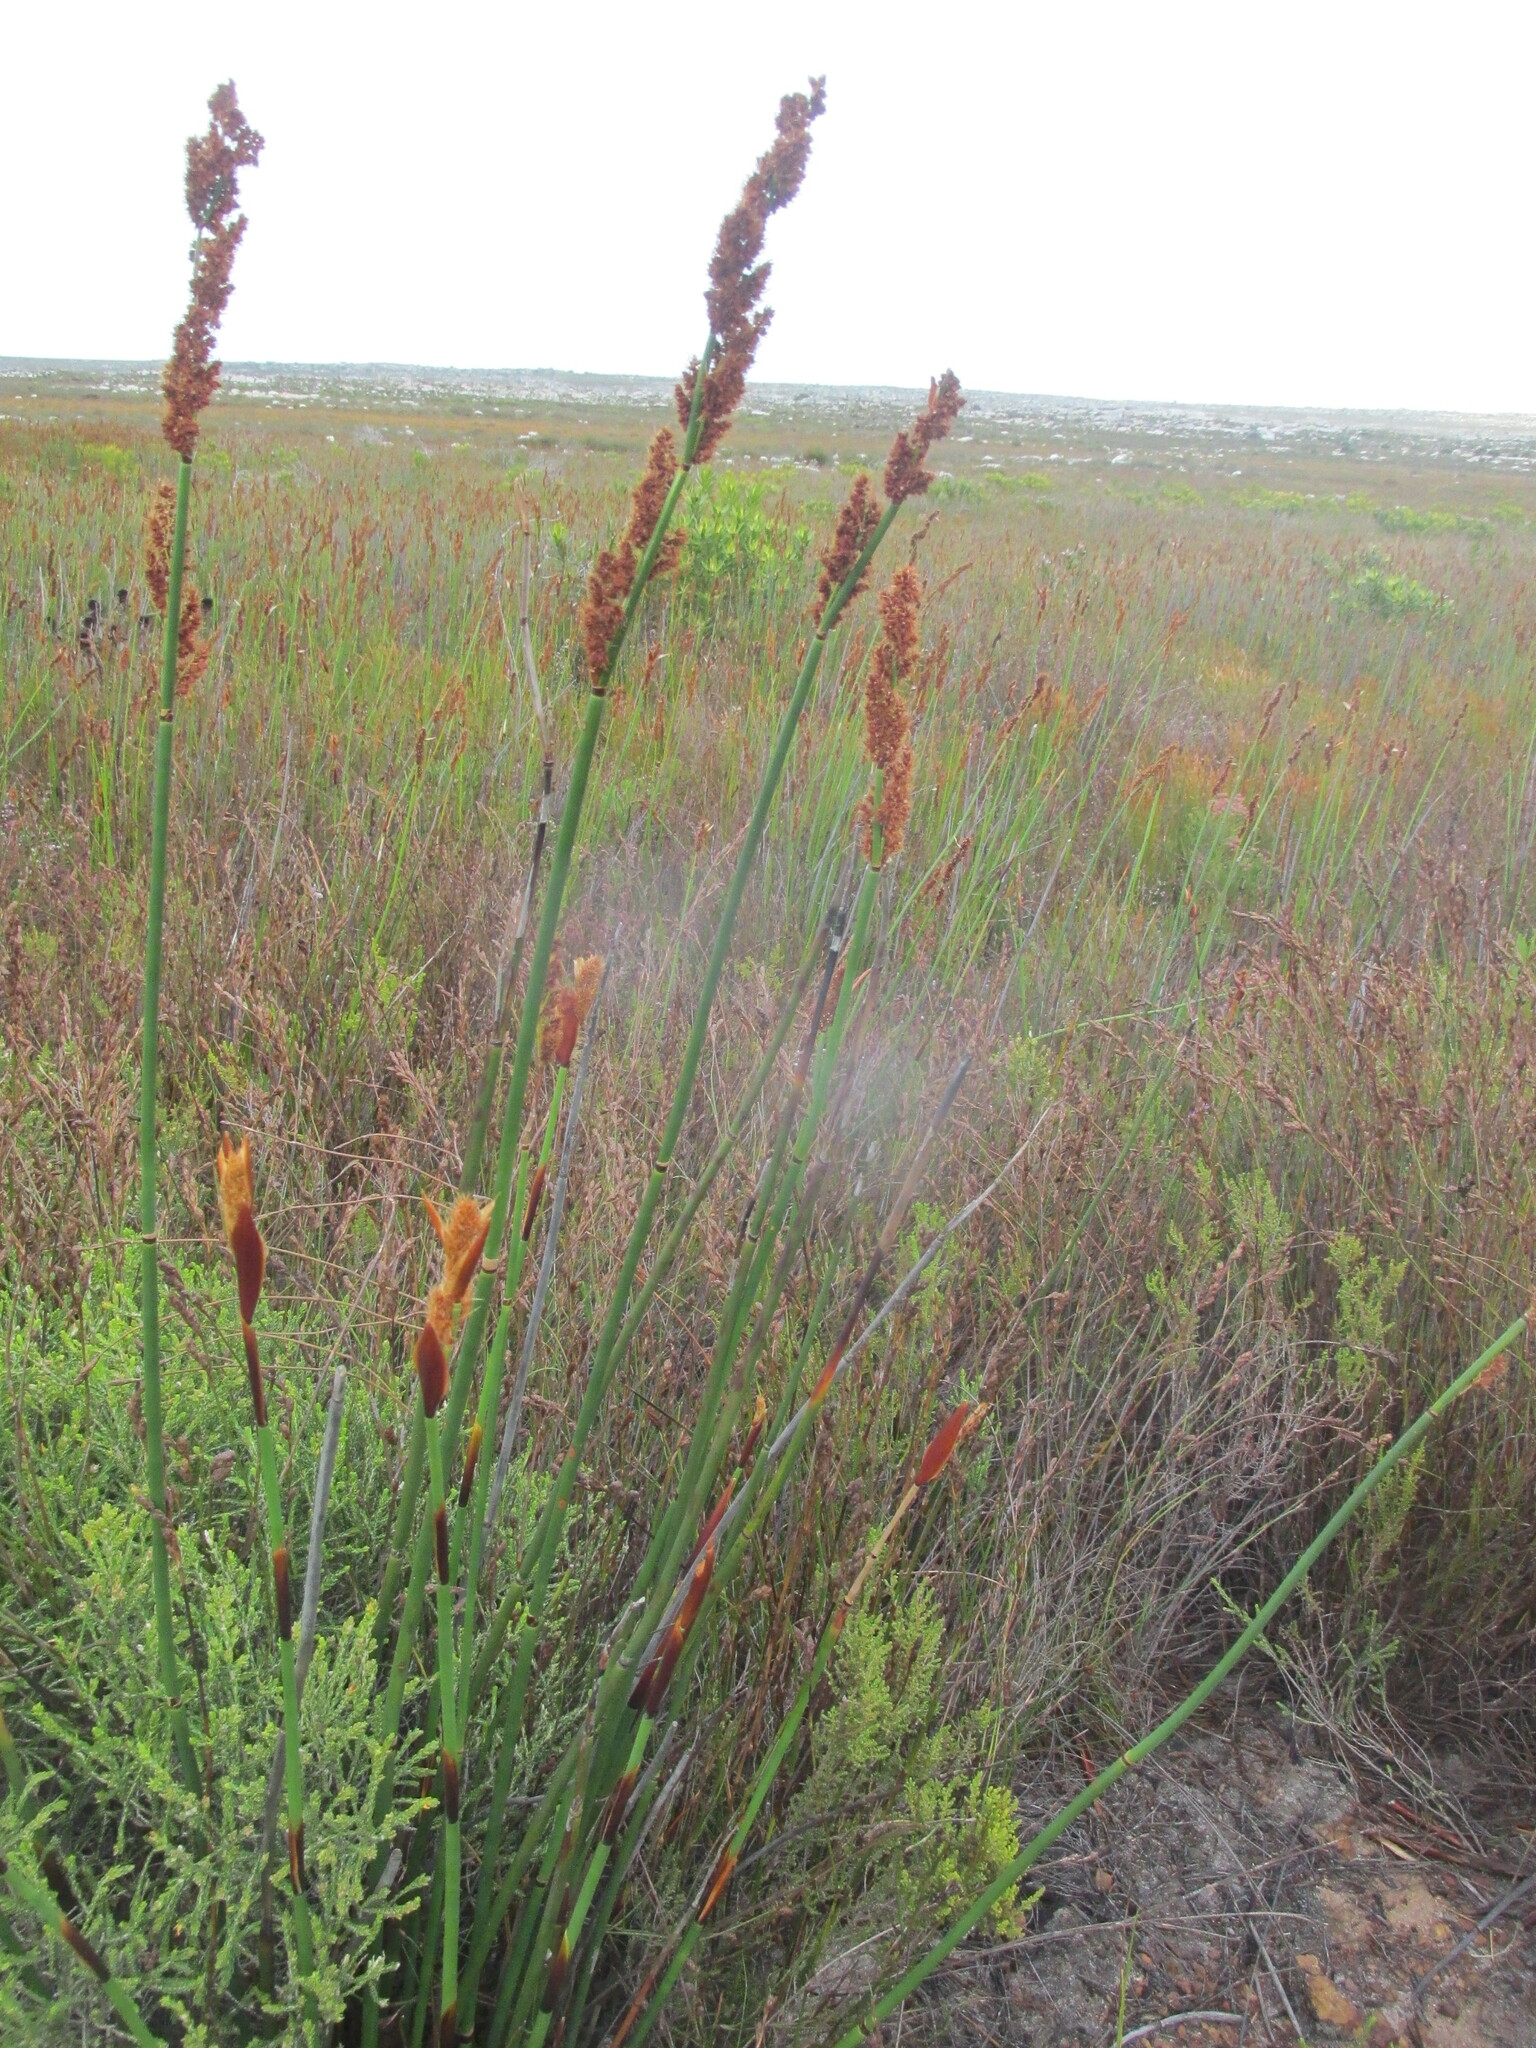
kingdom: Plantae
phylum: Tracheophyta
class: Liliopsida
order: Poales
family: Restionaceae
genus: Elegia
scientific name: Elegia mucronata
